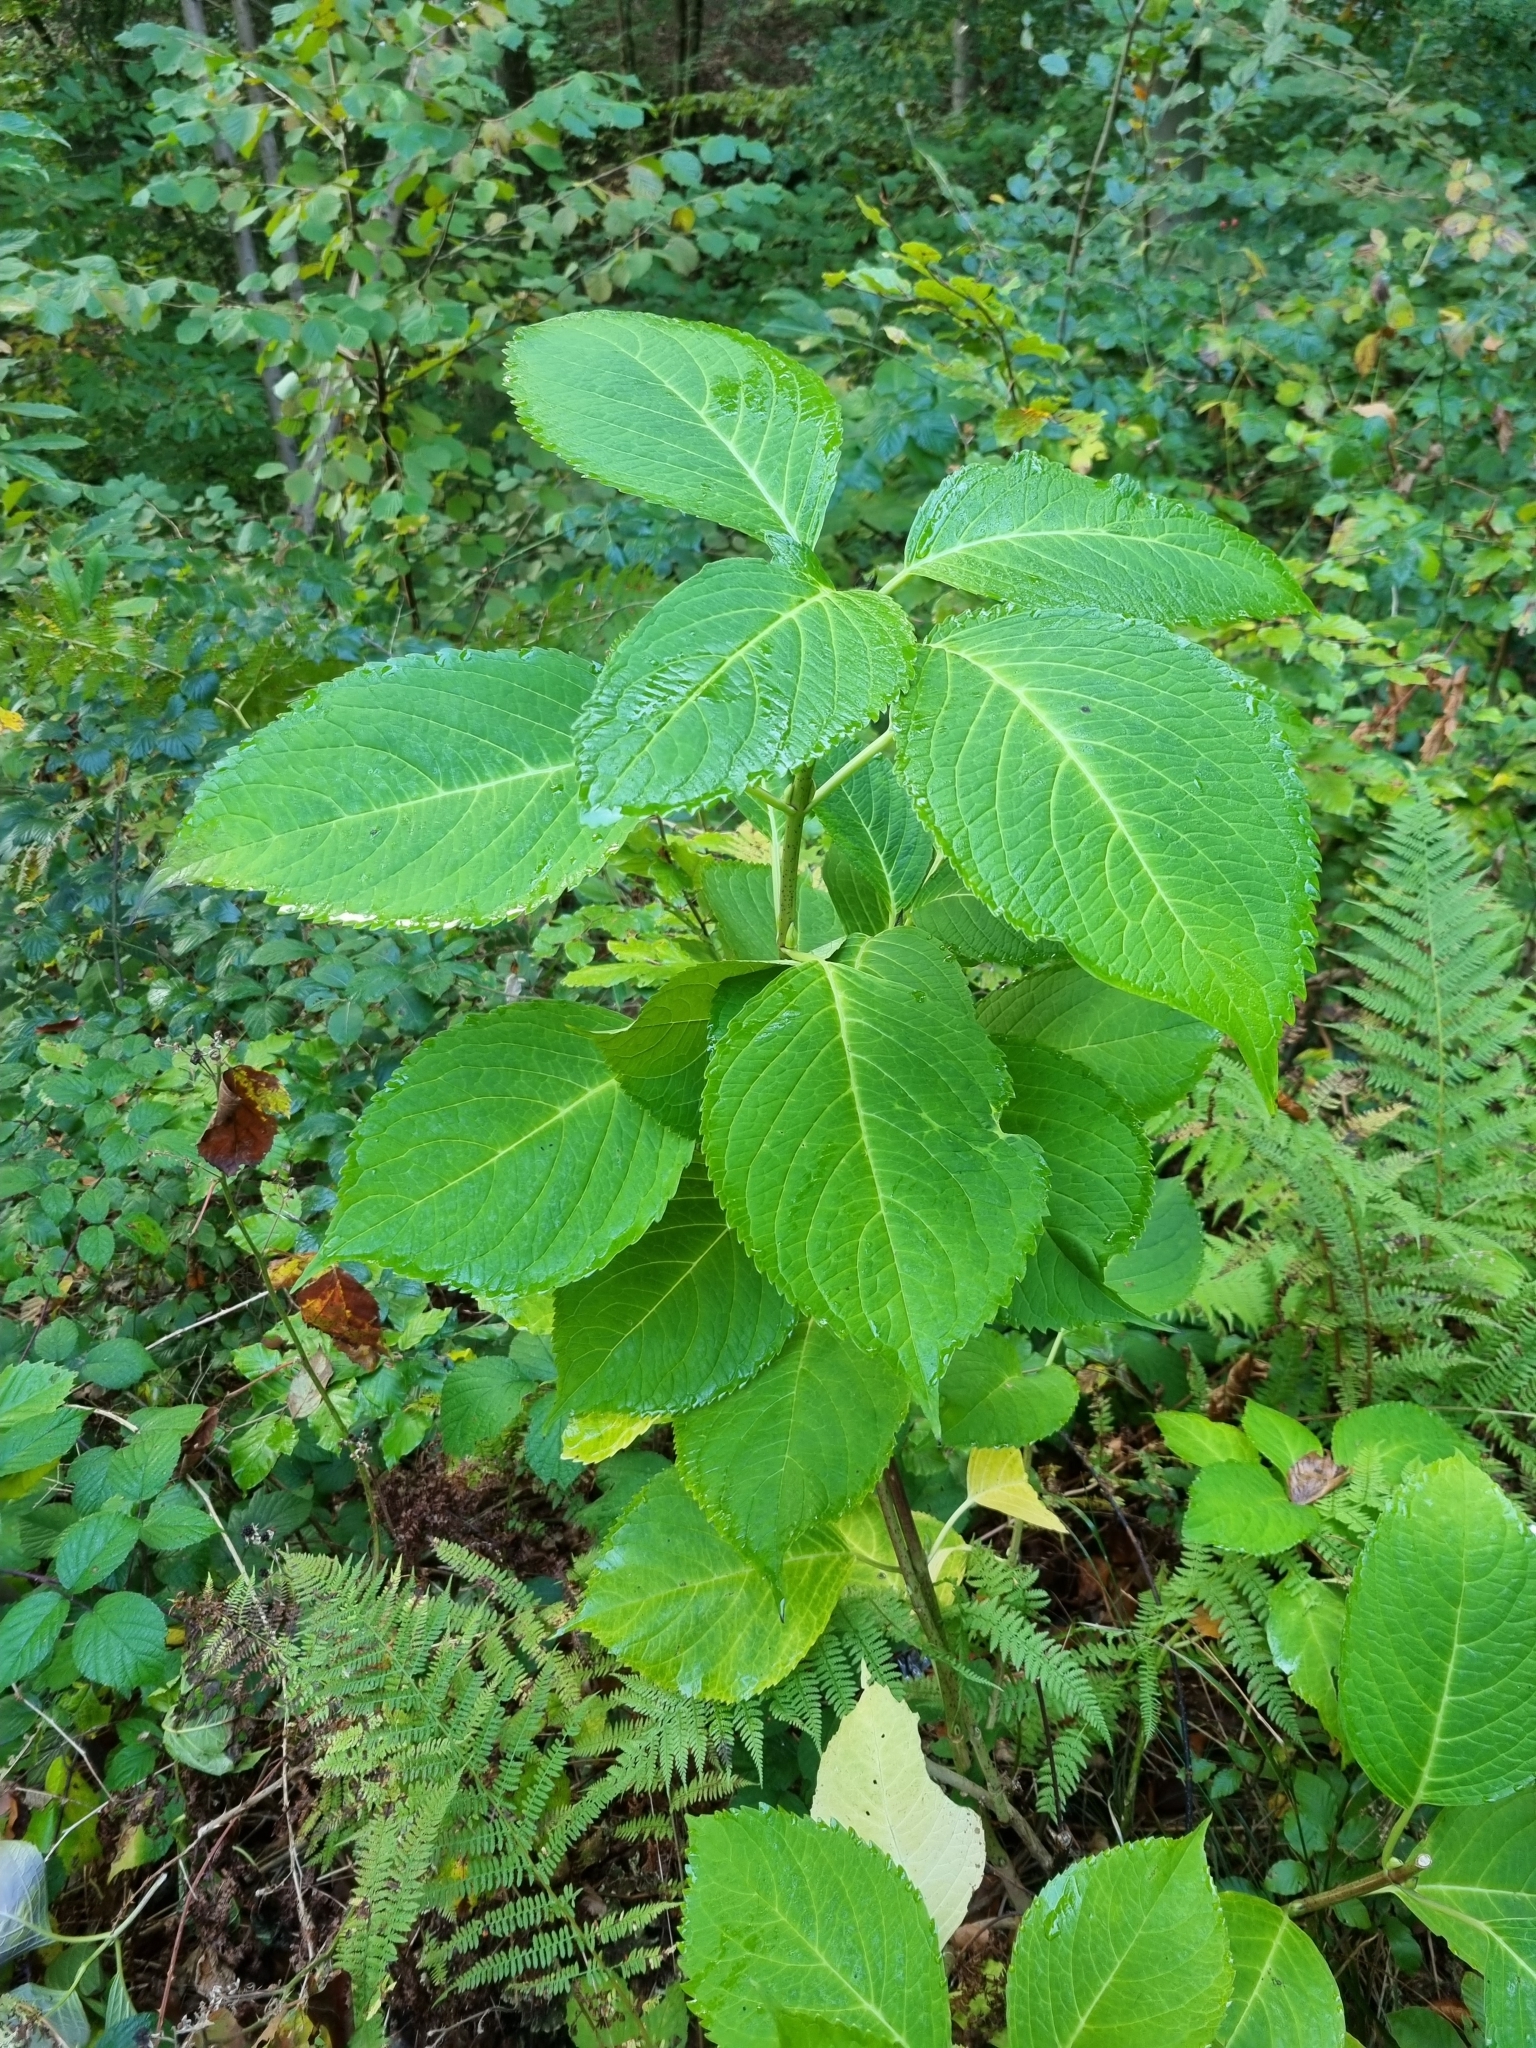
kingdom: Plantae
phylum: Tracheophyta
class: Magnoliopsida
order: Cornales
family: Hydrangeaceae
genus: Hydrangea
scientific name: Hydrangea macrophylla
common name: Hydrangea
